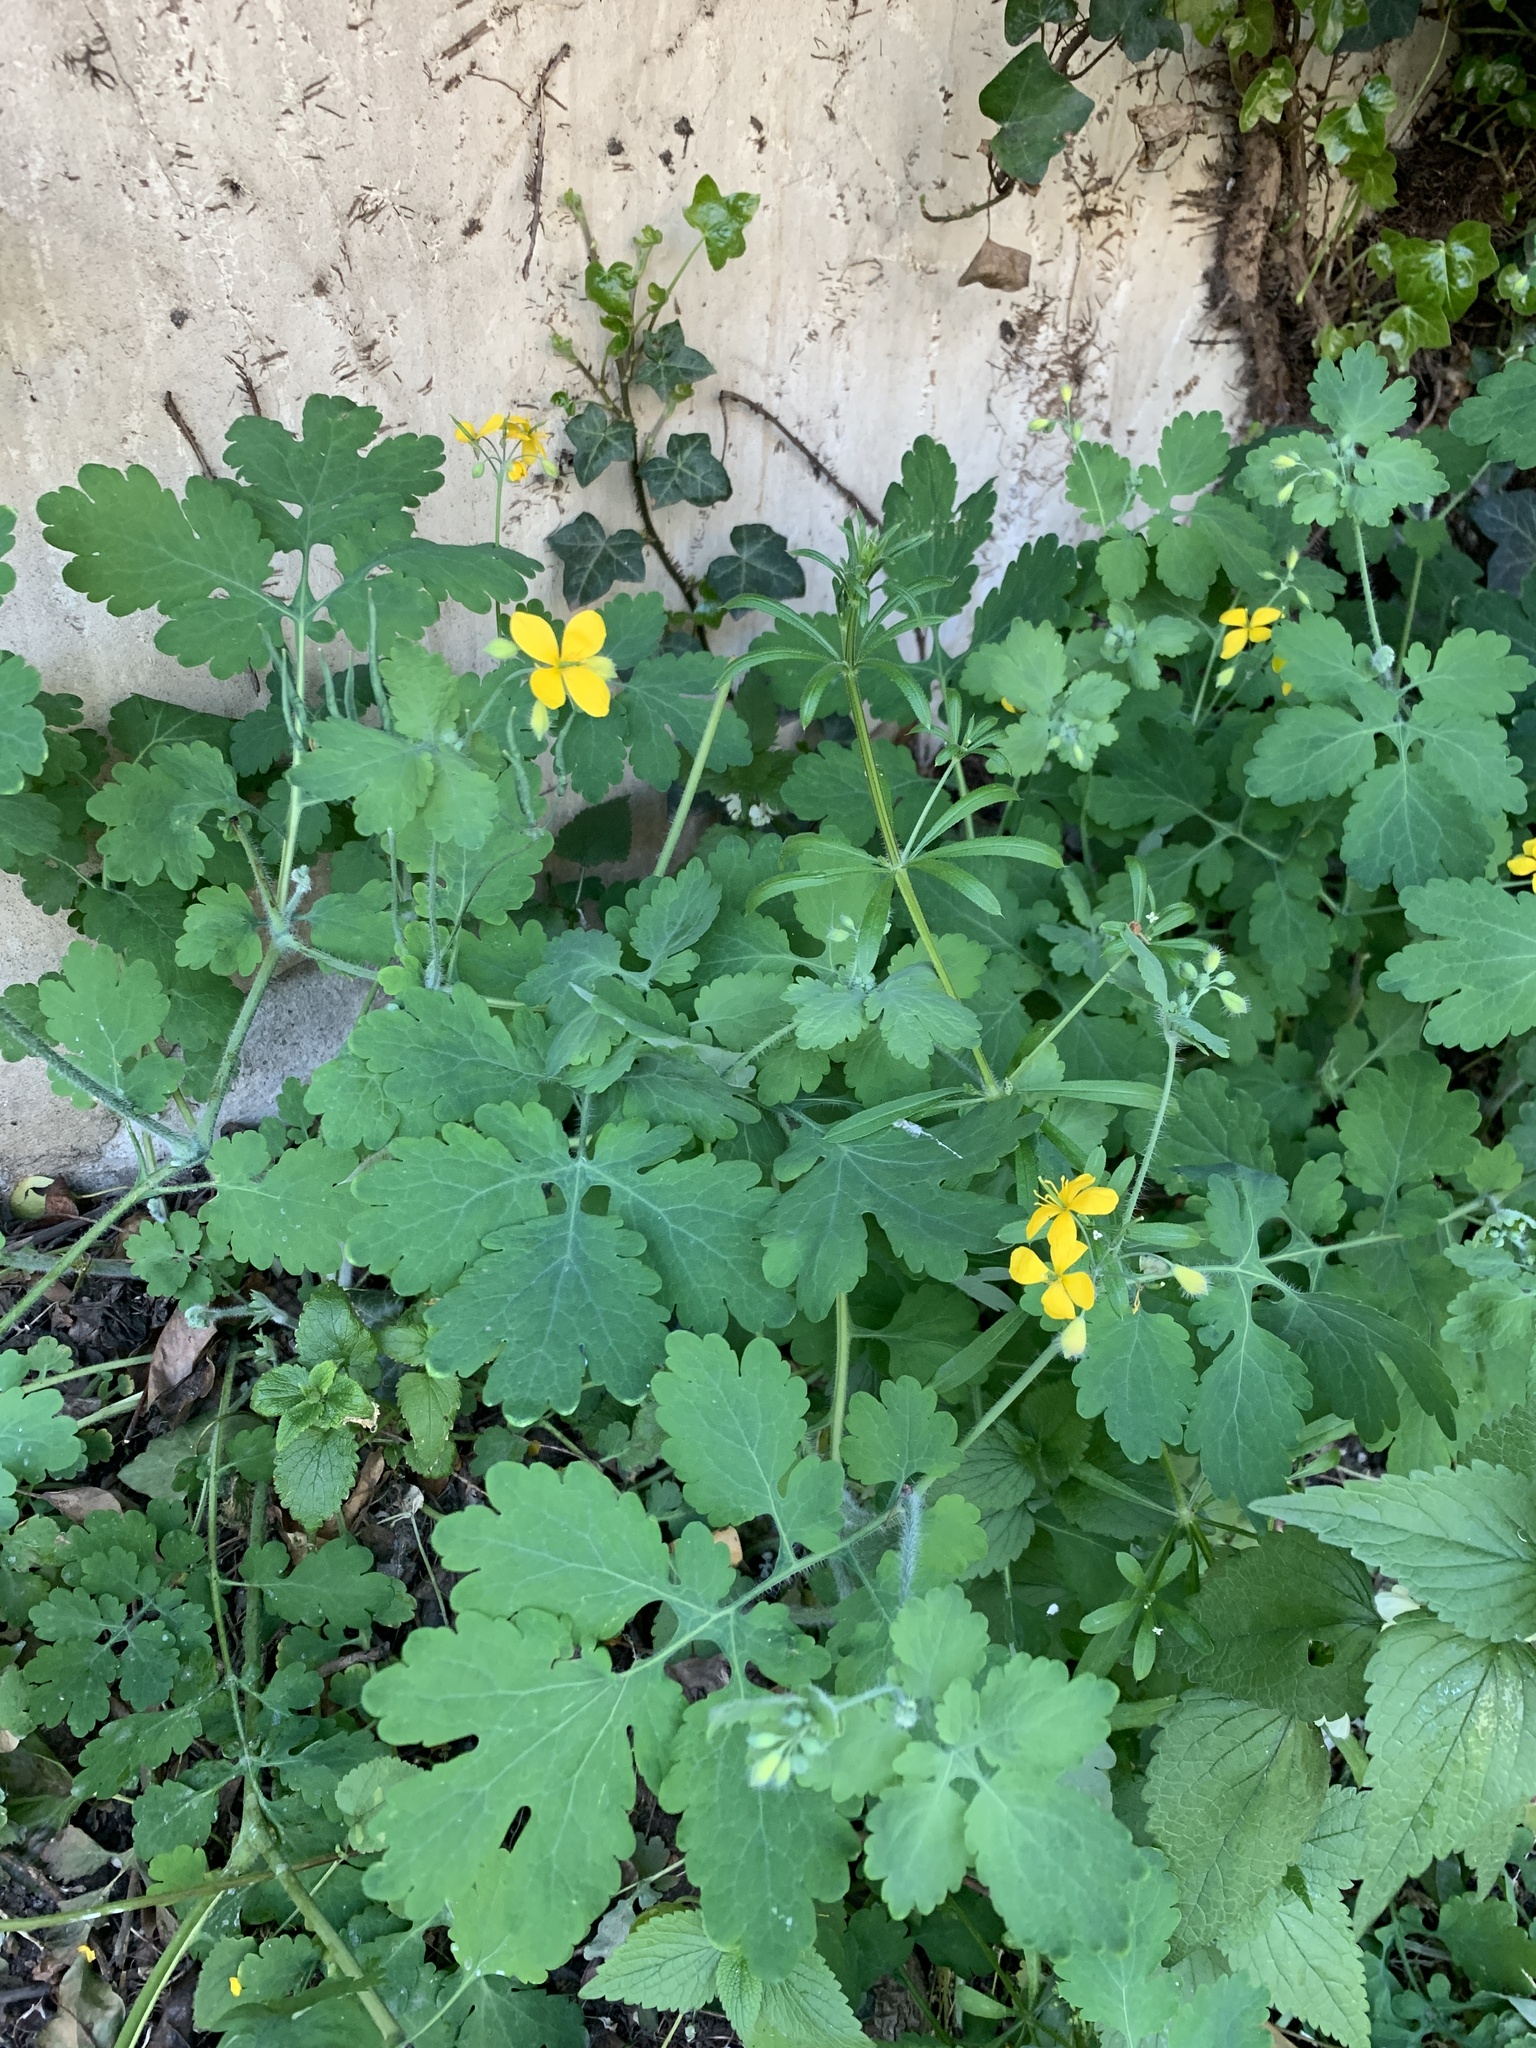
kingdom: Plantae
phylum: Tracheophyta
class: Magnoliopsida
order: Ranunculales
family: Papaveraceae
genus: Chelidonium
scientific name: Chelidonium majus
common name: Greater celandine
